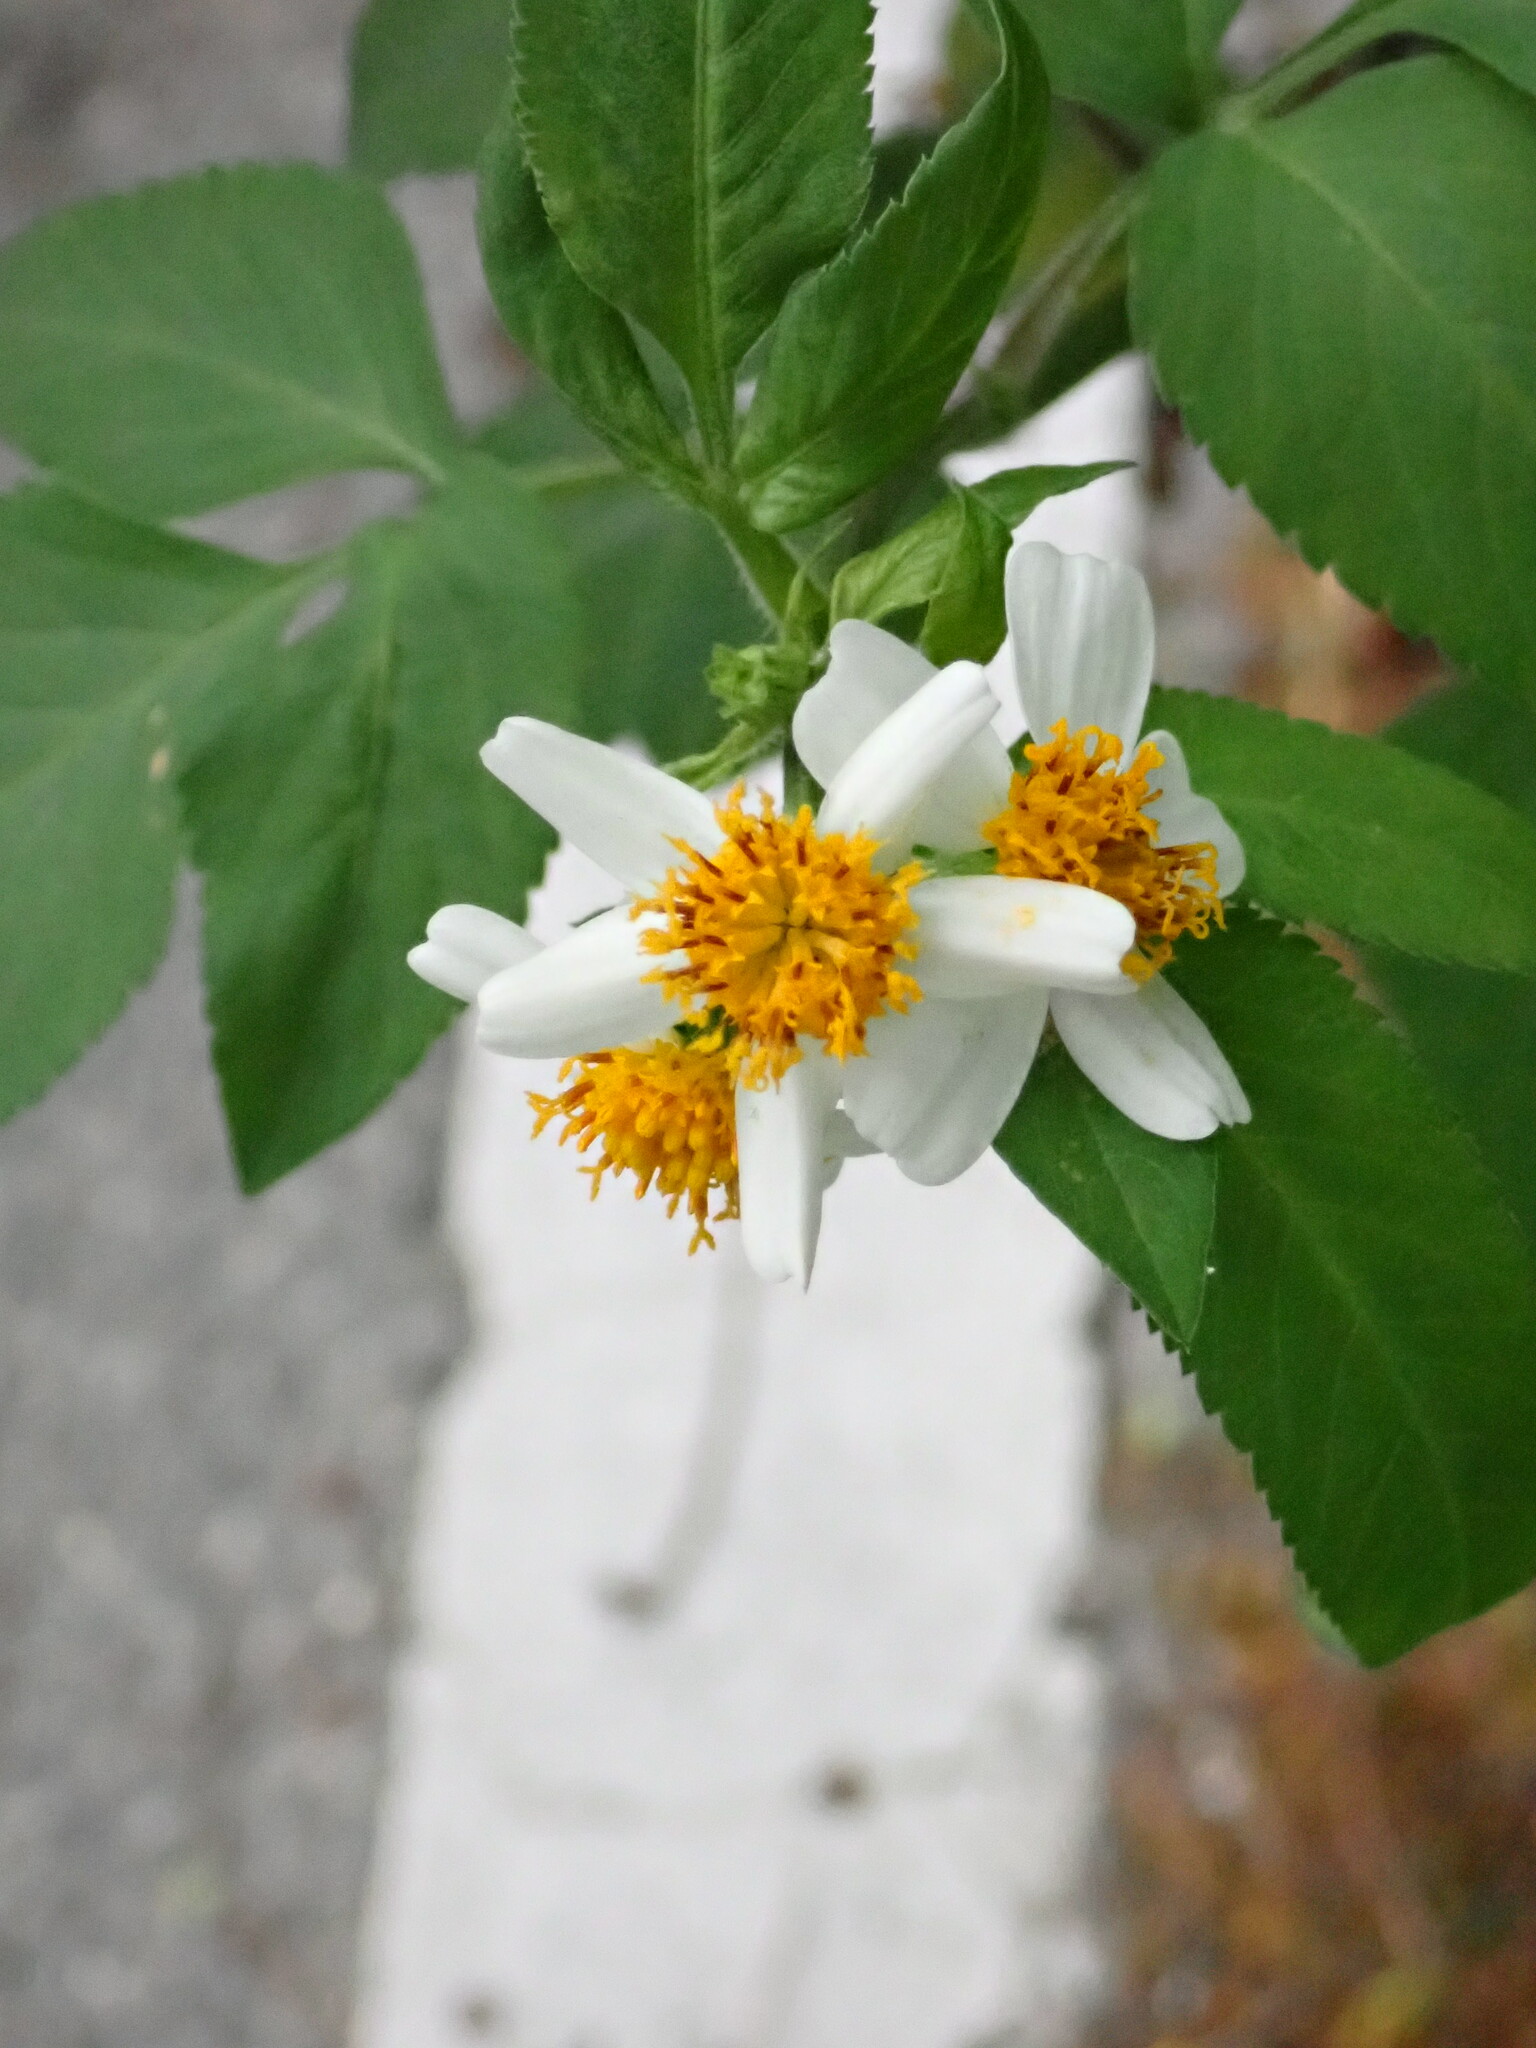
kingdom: Plantae
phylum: Tracheophyta
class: Magnoliopsida
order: Asterales
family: Asteraceae
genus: Bidens
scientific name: Bidens alba
